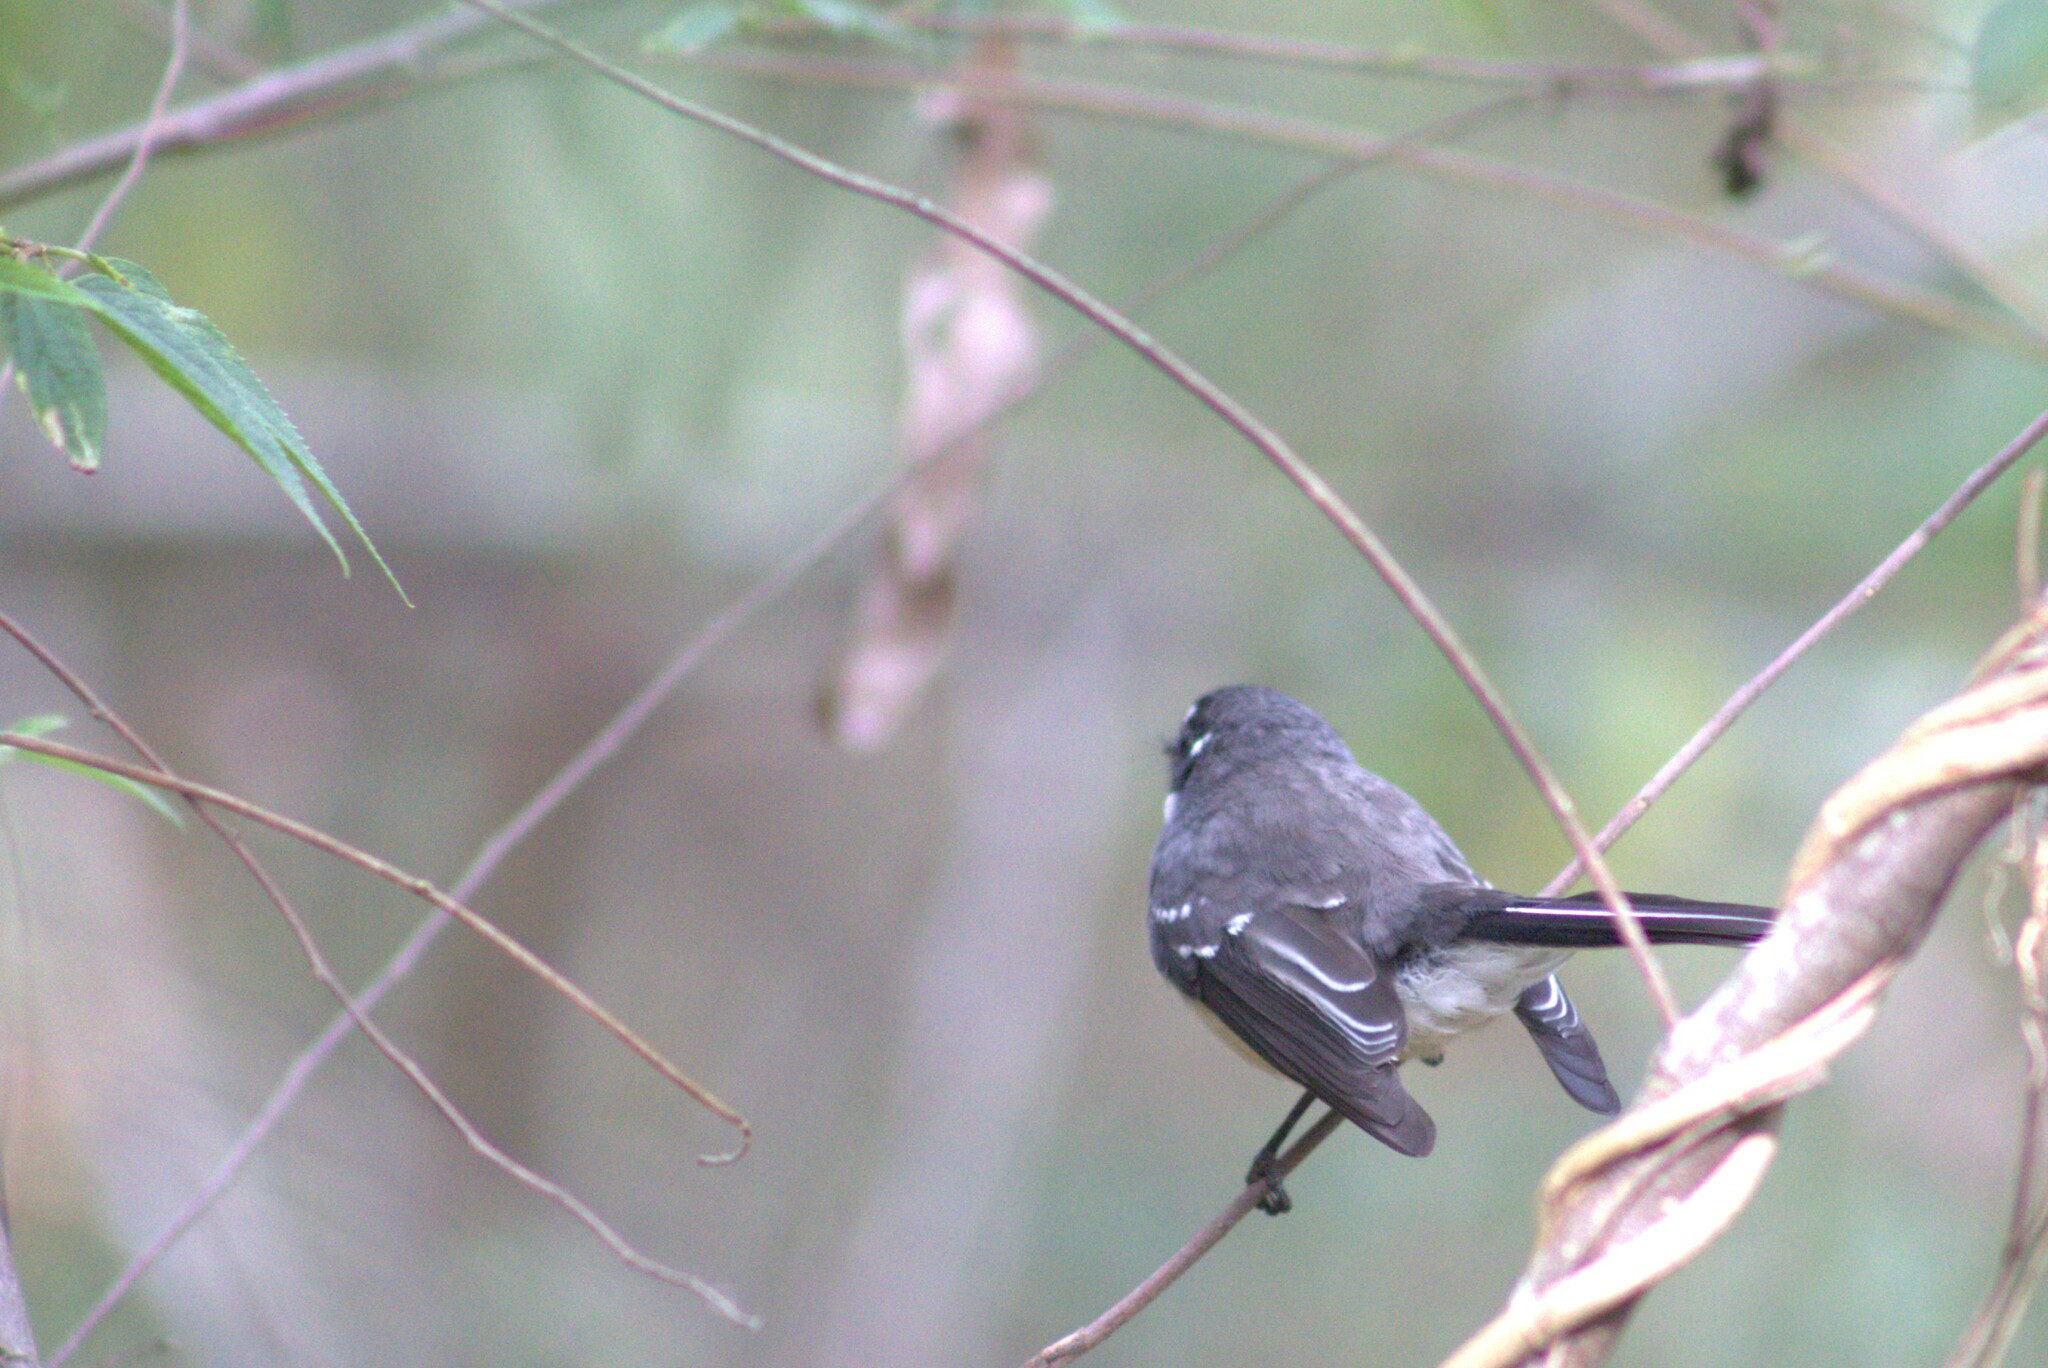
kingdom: Animalia
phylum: Chordata
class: Aves
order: Passeriformes
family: Rhipiduridae
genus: Rhipidura
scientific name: Rhipidura albiscapa
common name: Grey fantail
